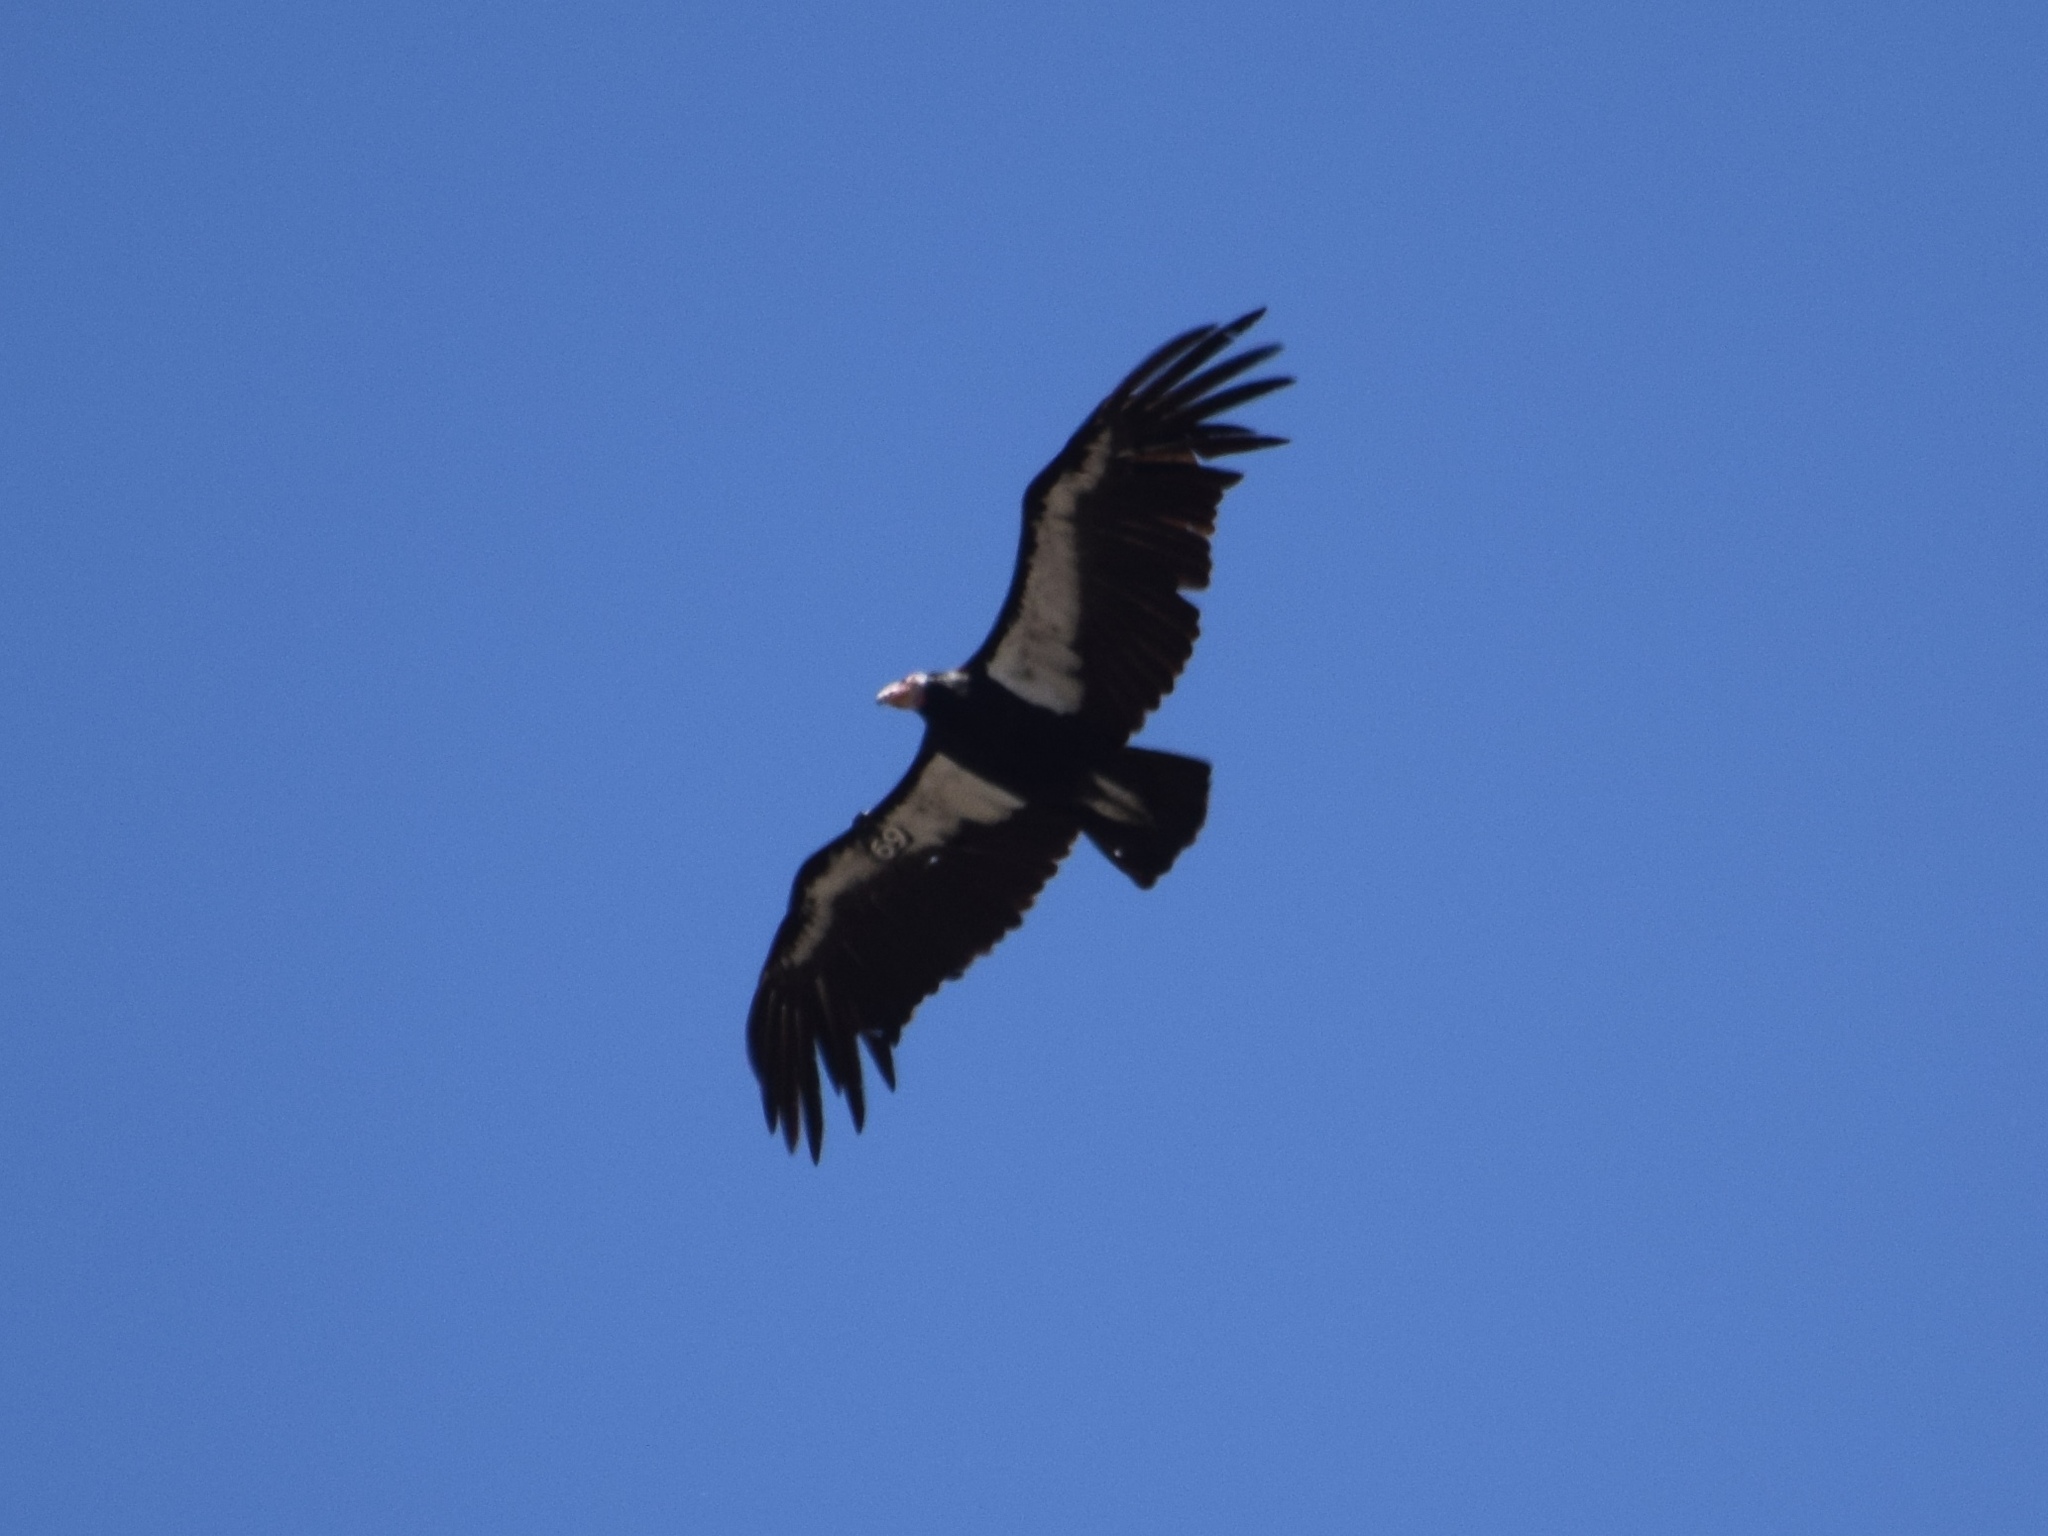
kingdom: Animalia
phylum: Chordata
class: Aves
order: Accipitriformes
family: Cathartidae
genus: Gymnogyps
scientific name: Gymnogyps californianus
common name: California condor
